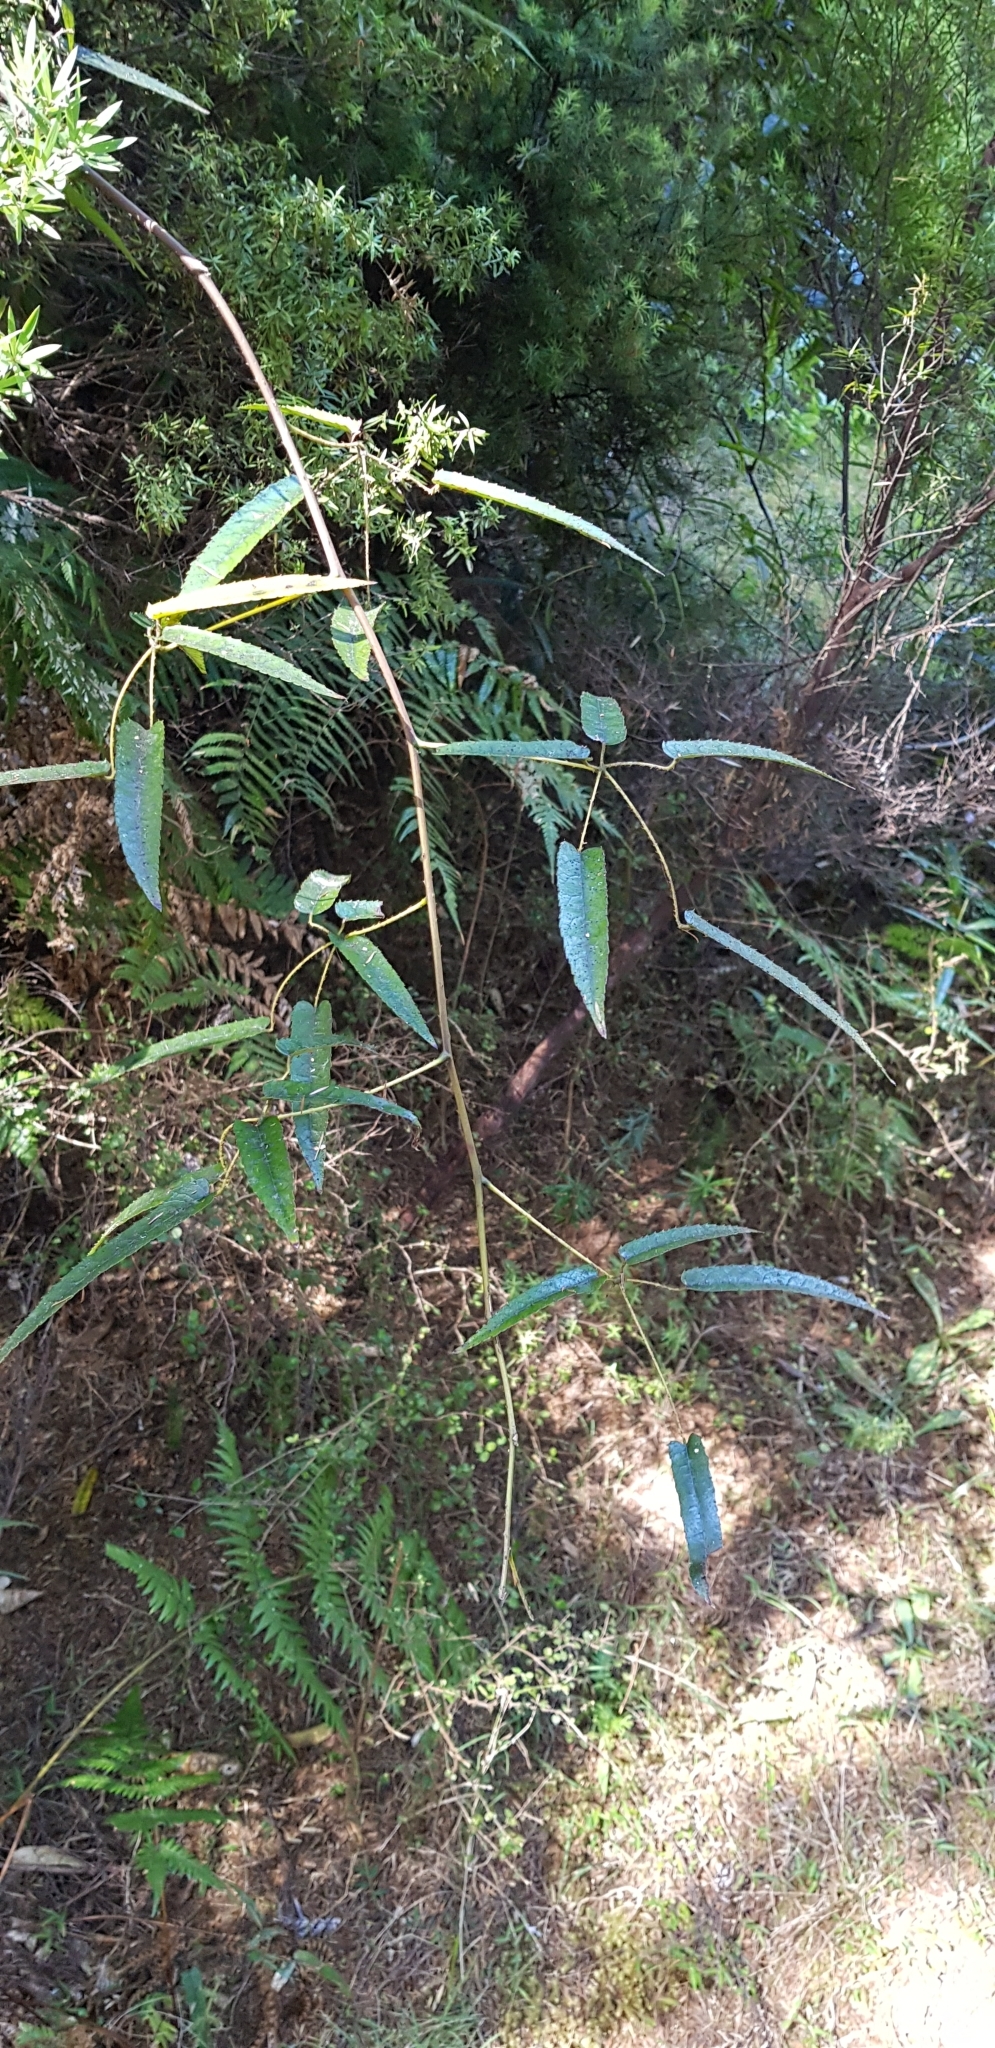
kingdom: Plantae
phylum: Tracheophyta
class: Magnoliopsida
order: Rosales
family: Rosaceae
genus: Rubus
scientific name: Rubus cissoides
